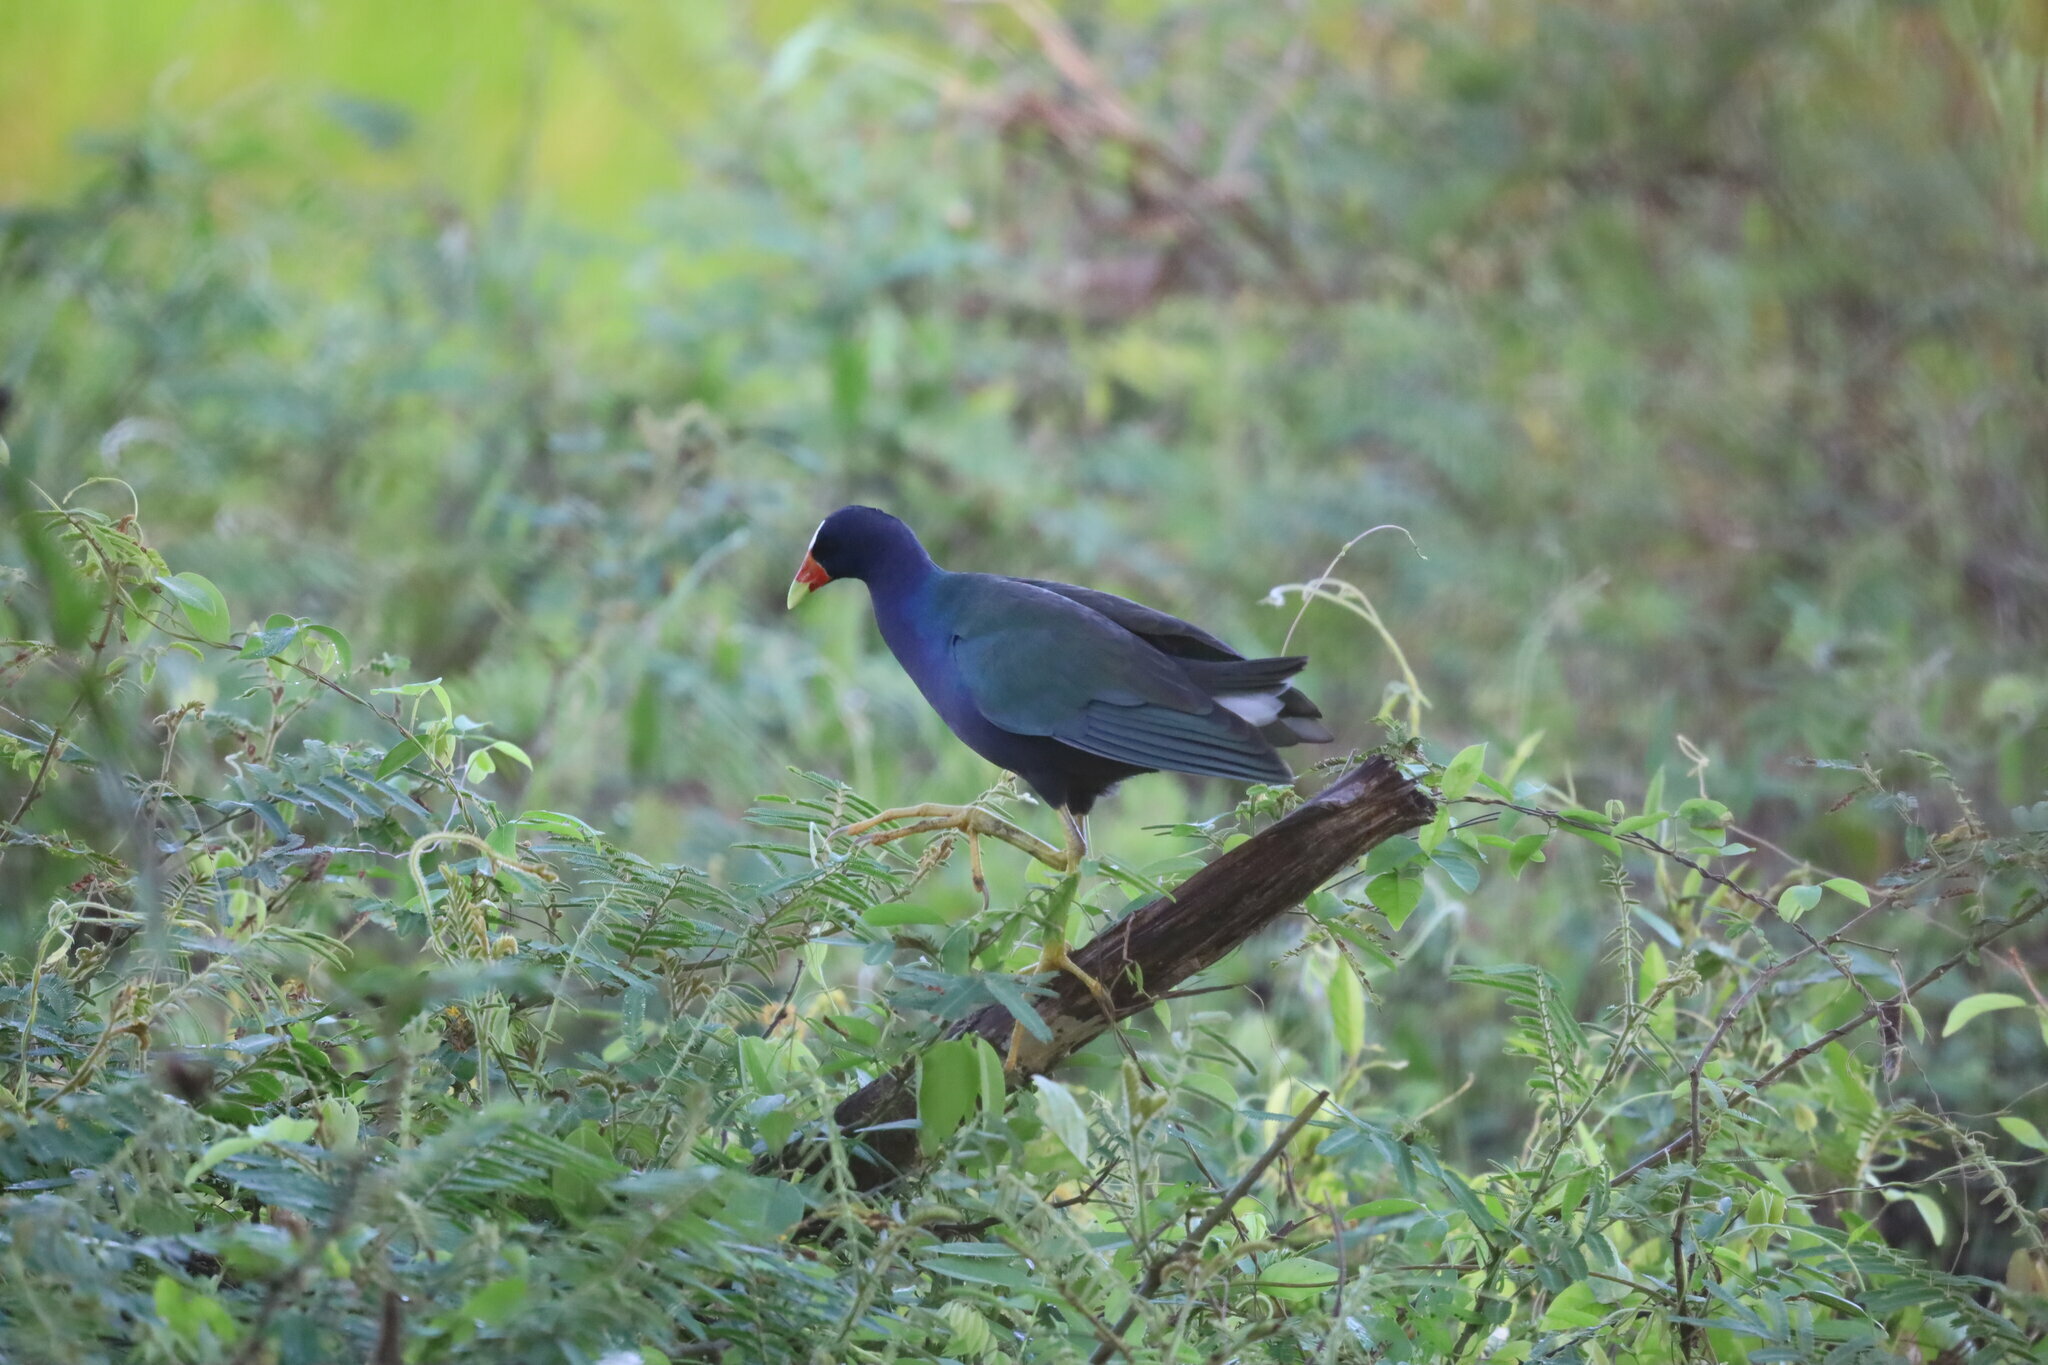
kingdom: Animalia
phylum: Chordata
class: Aves
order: Gruiformes
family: Rallidae
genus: Porphyrio
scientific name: Porphyrio martinica
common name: Purple gallinule
